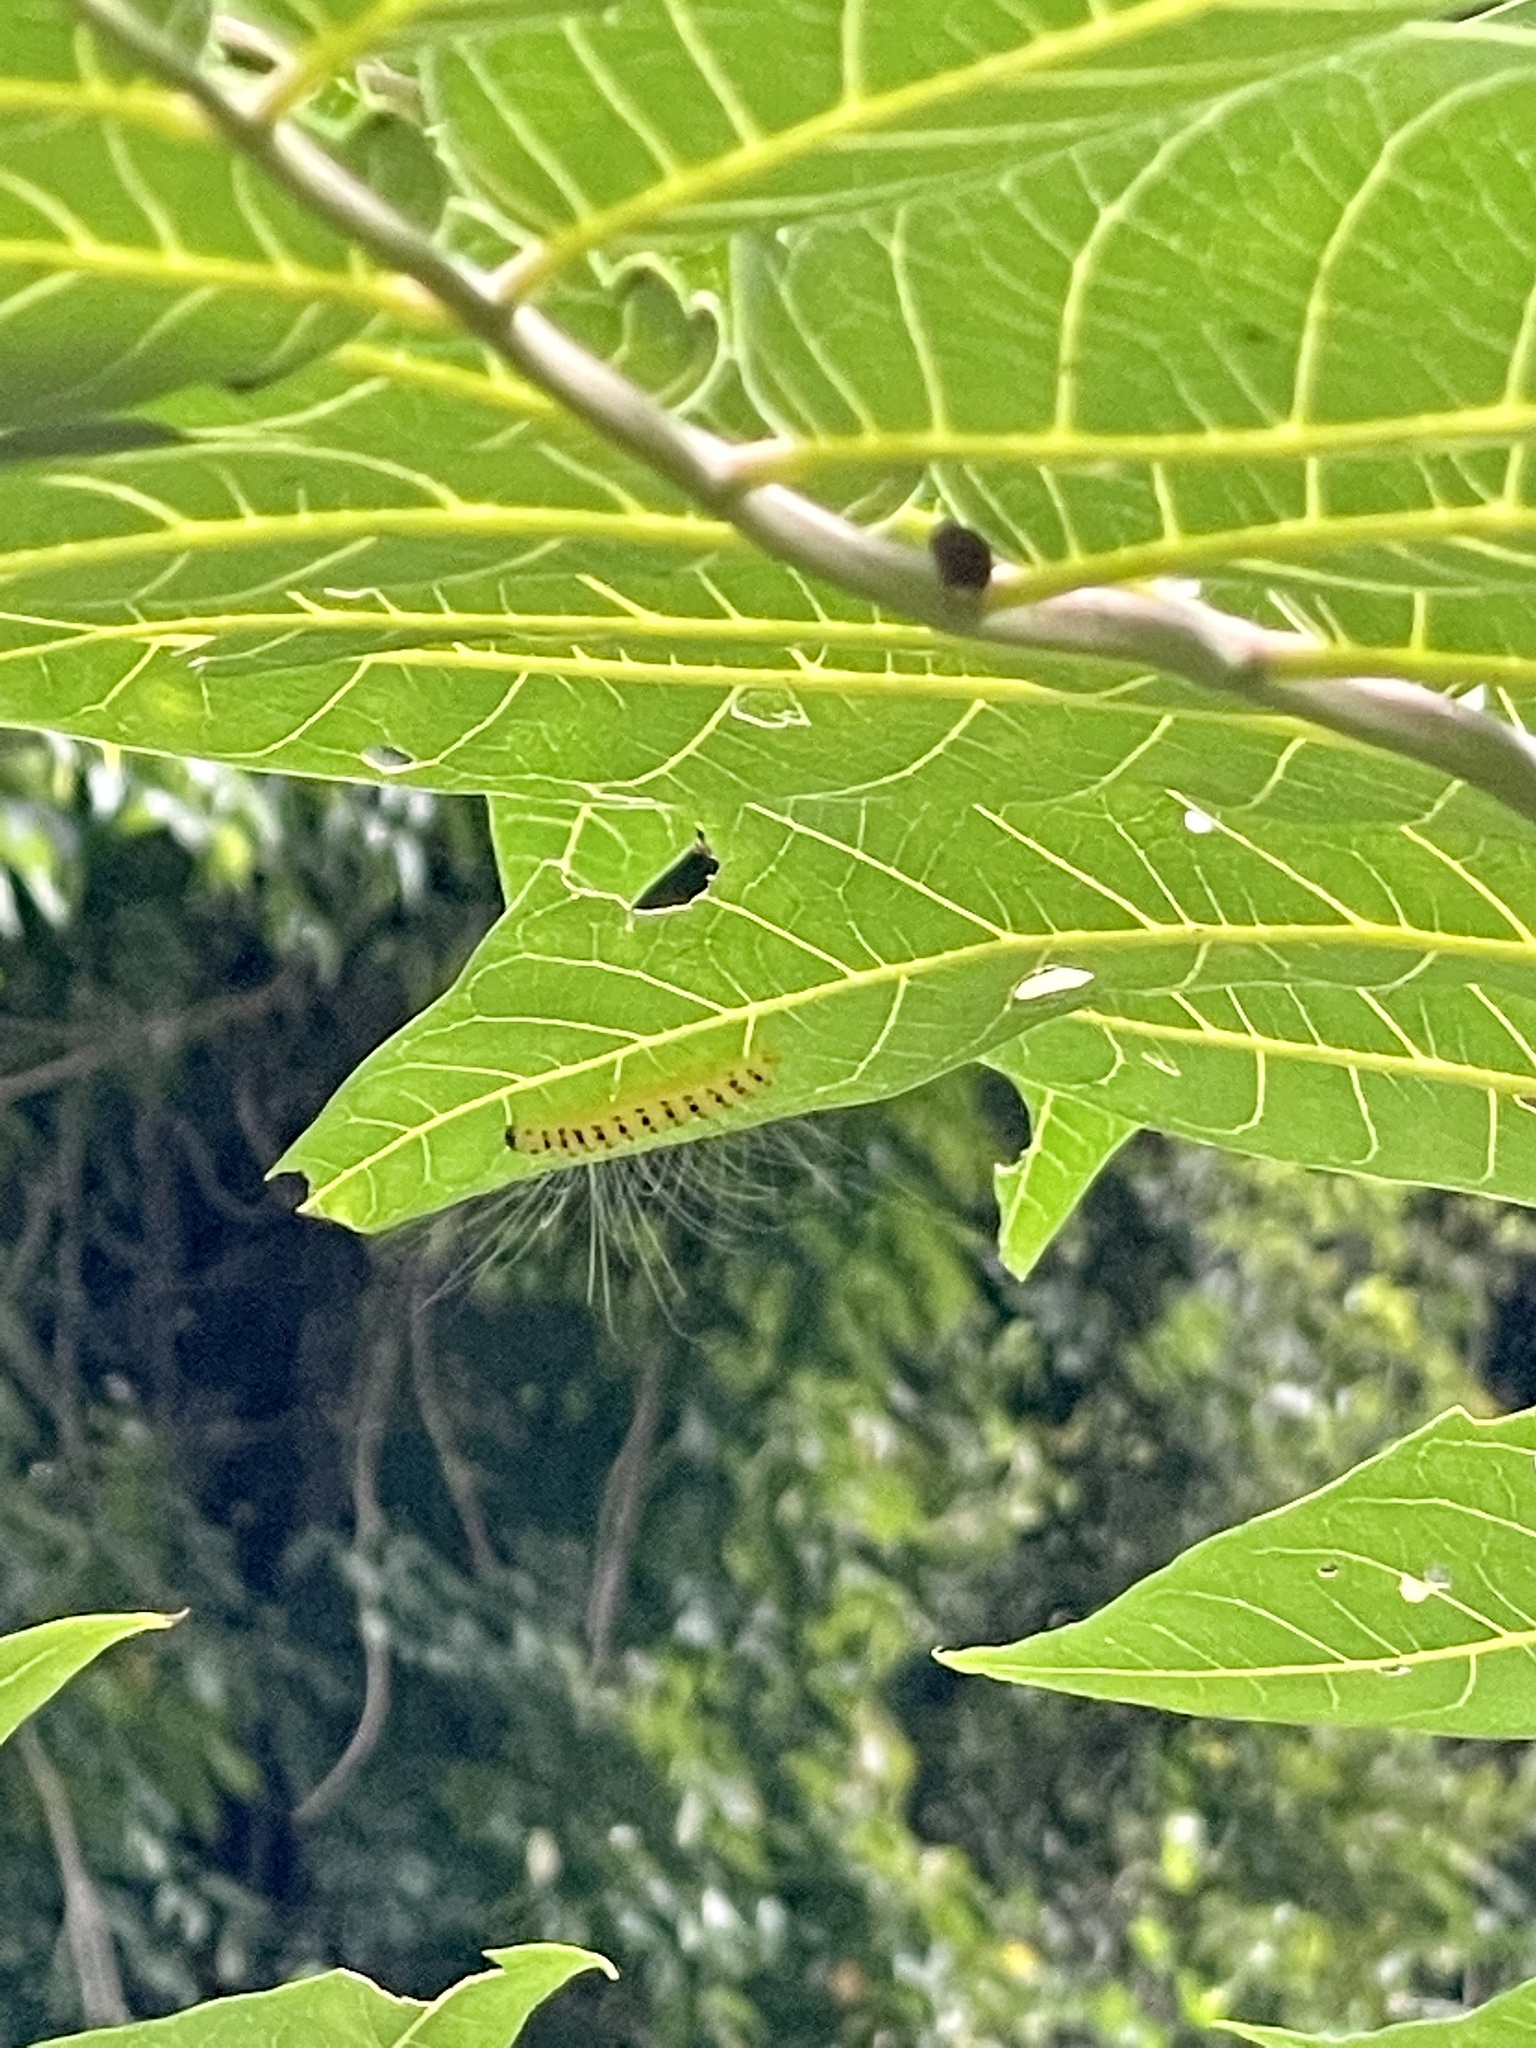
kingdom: Animalia
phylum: Arthropoda
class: Insecta
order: Lepidoptera
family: Nolidae
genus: Eligma
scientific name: Eligma narcissus
